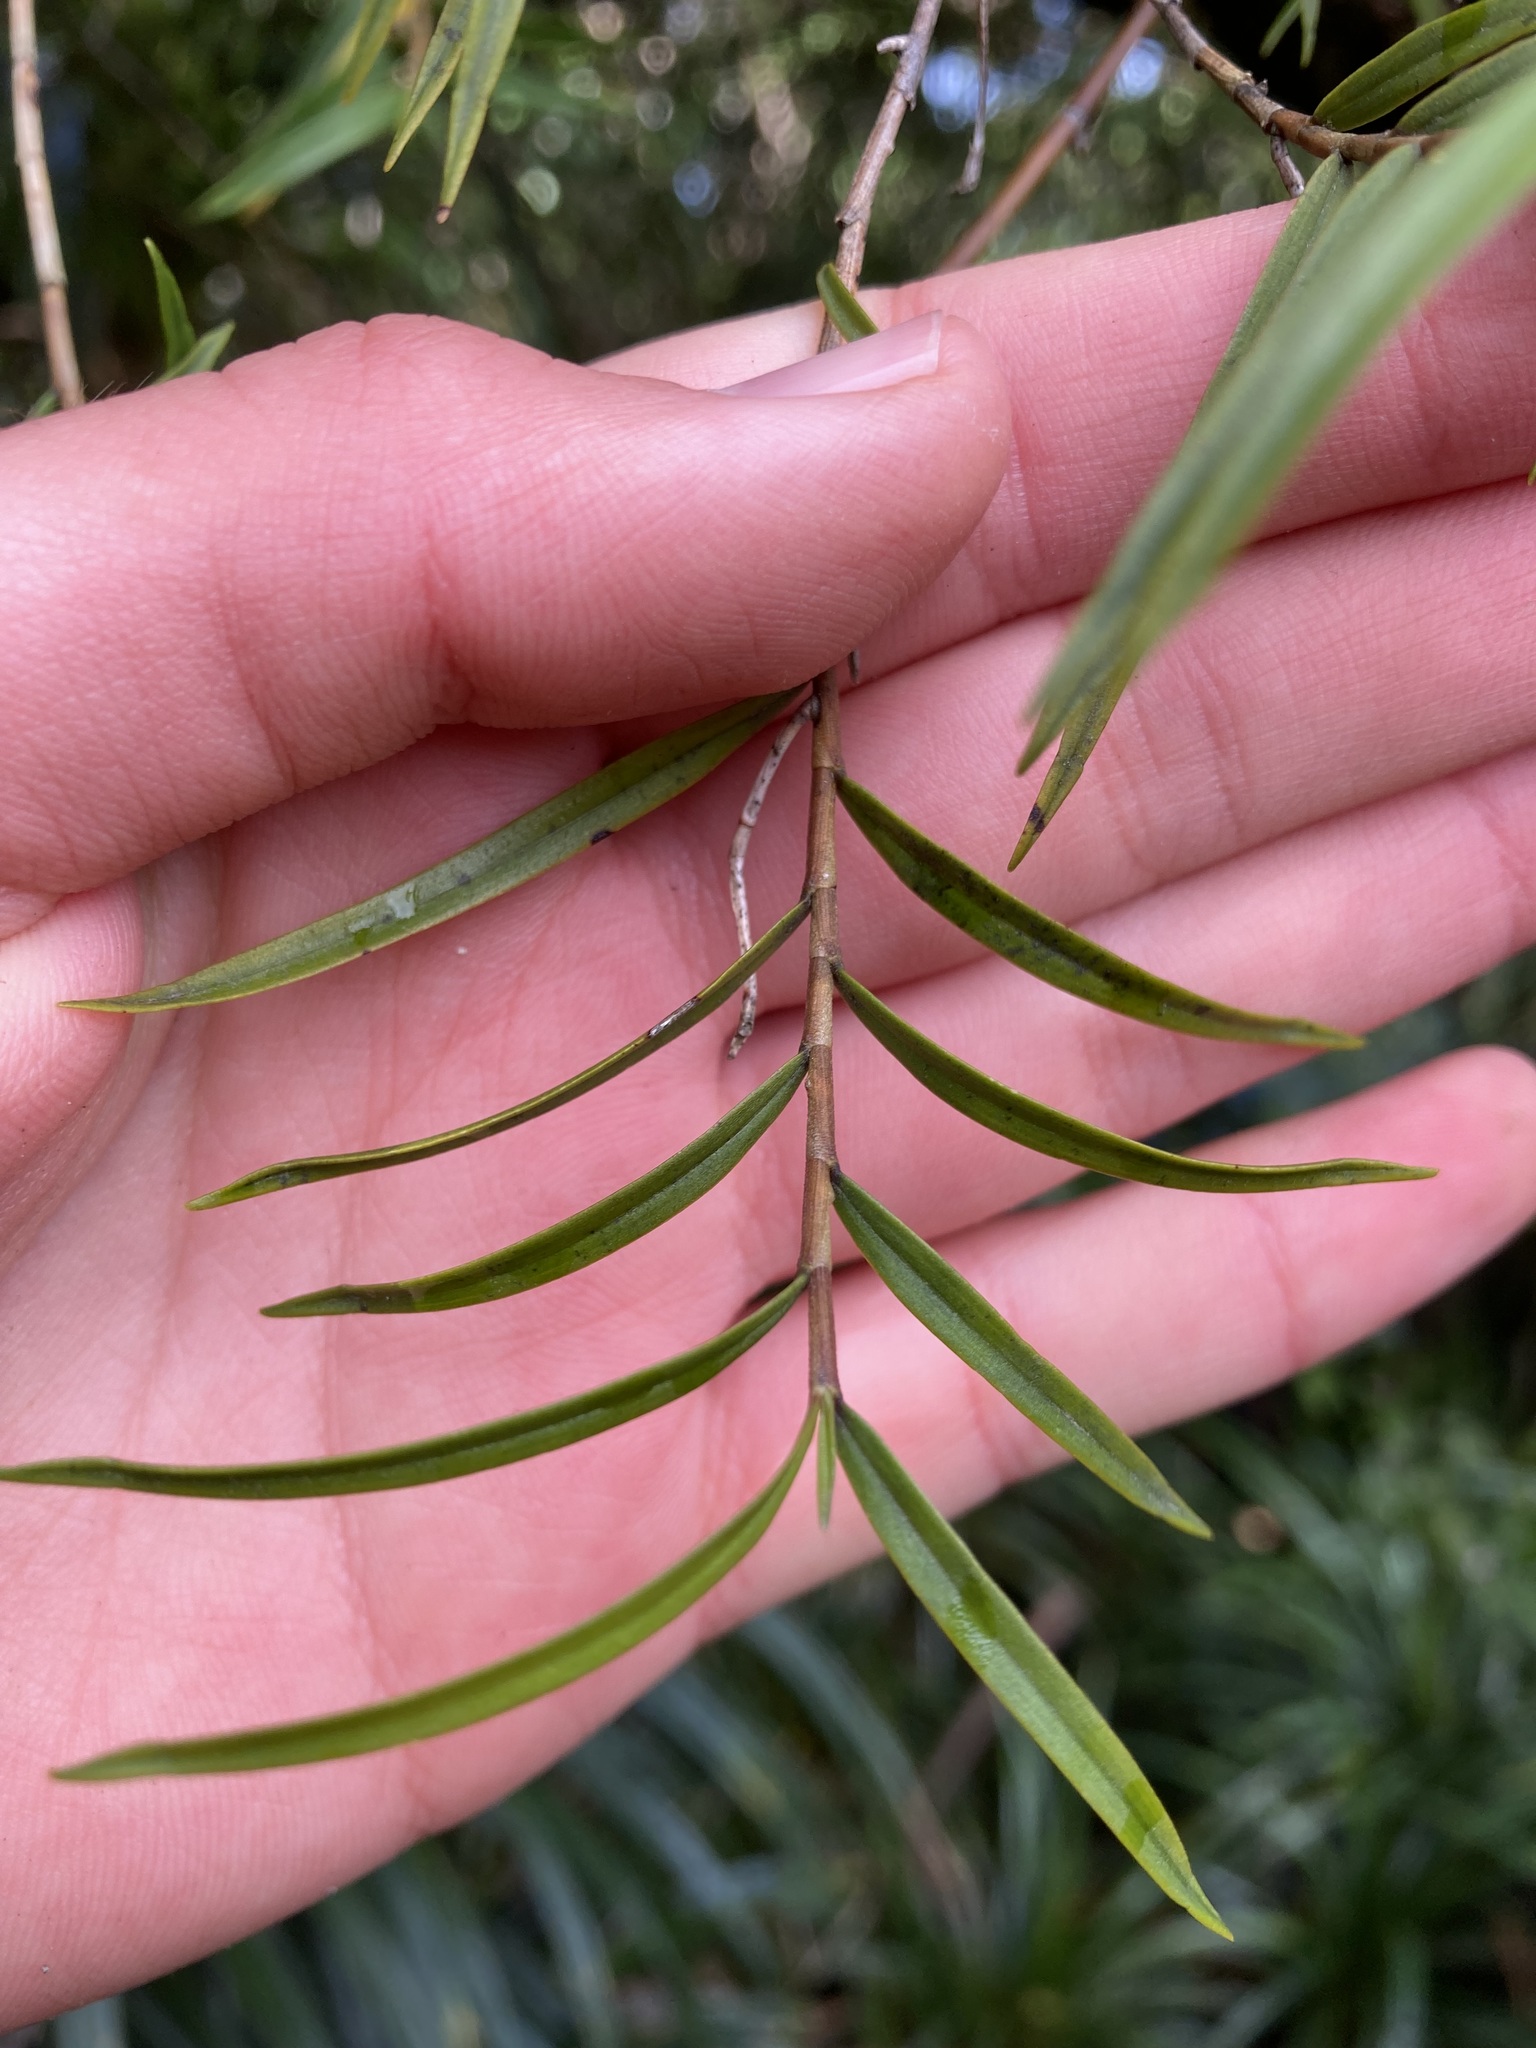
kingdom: Plantae
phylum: Tracheophyta
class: Liliopsida
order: Asparagales
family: Orchidaceae
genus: Dendrobium
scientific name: Dendrobium cunninghamii
